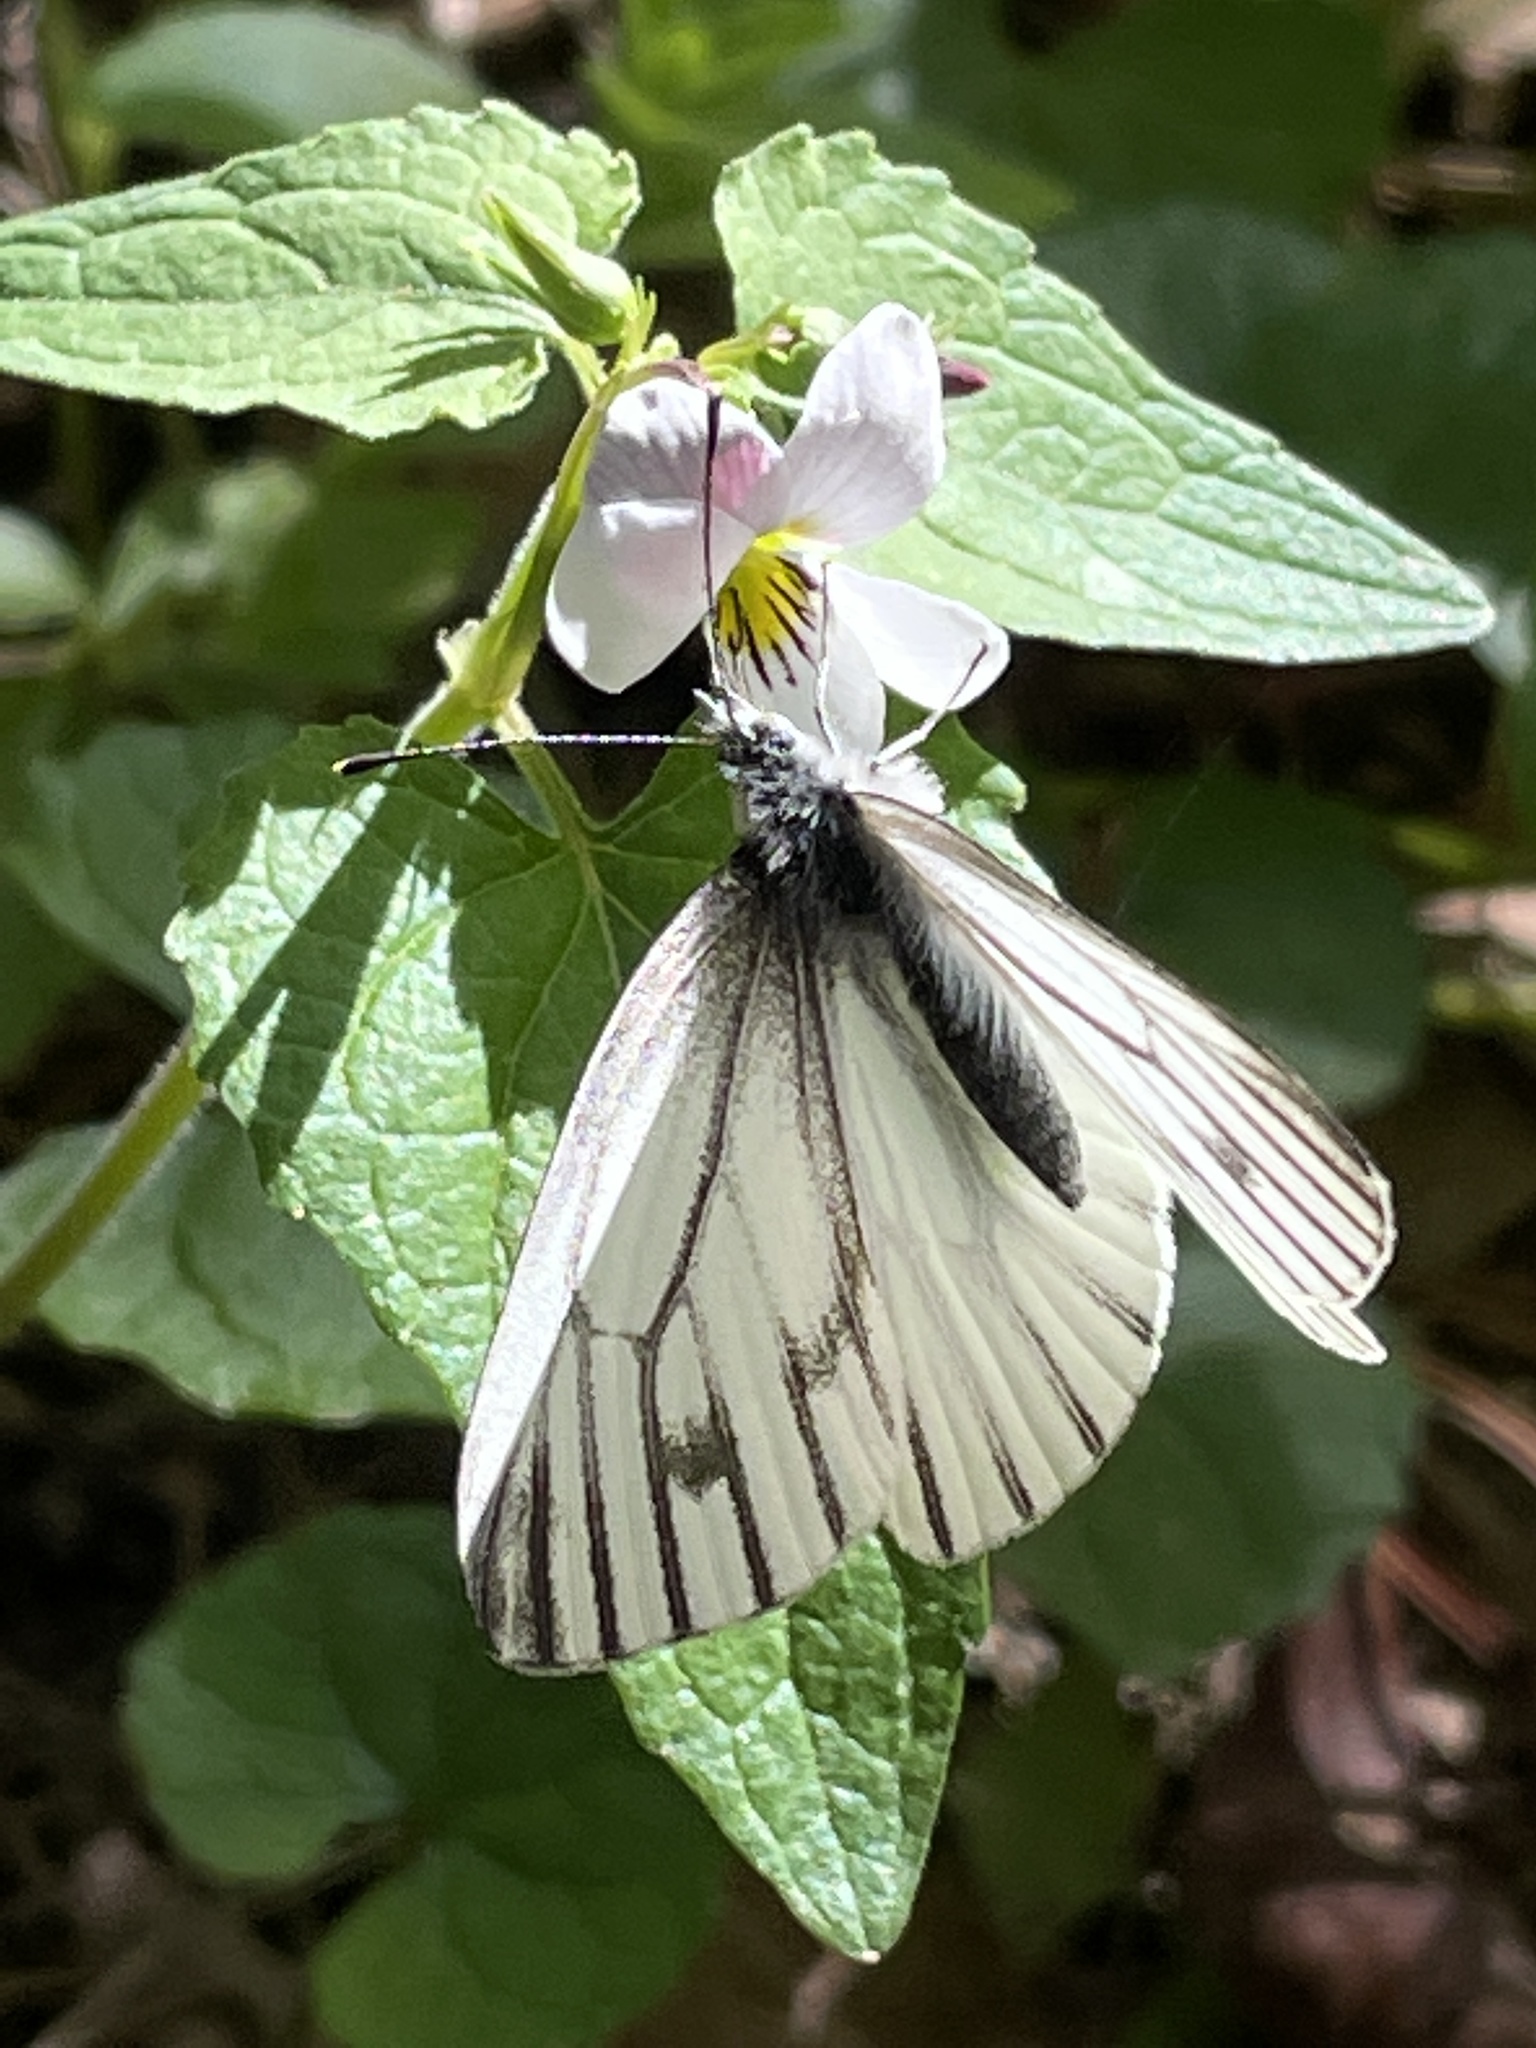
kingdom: Animalia
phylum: Arthropoda
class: Insecta
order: Lepidoptera
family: Pieridae
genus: Pieris
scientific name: Pieris marginalis
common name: Margined white
